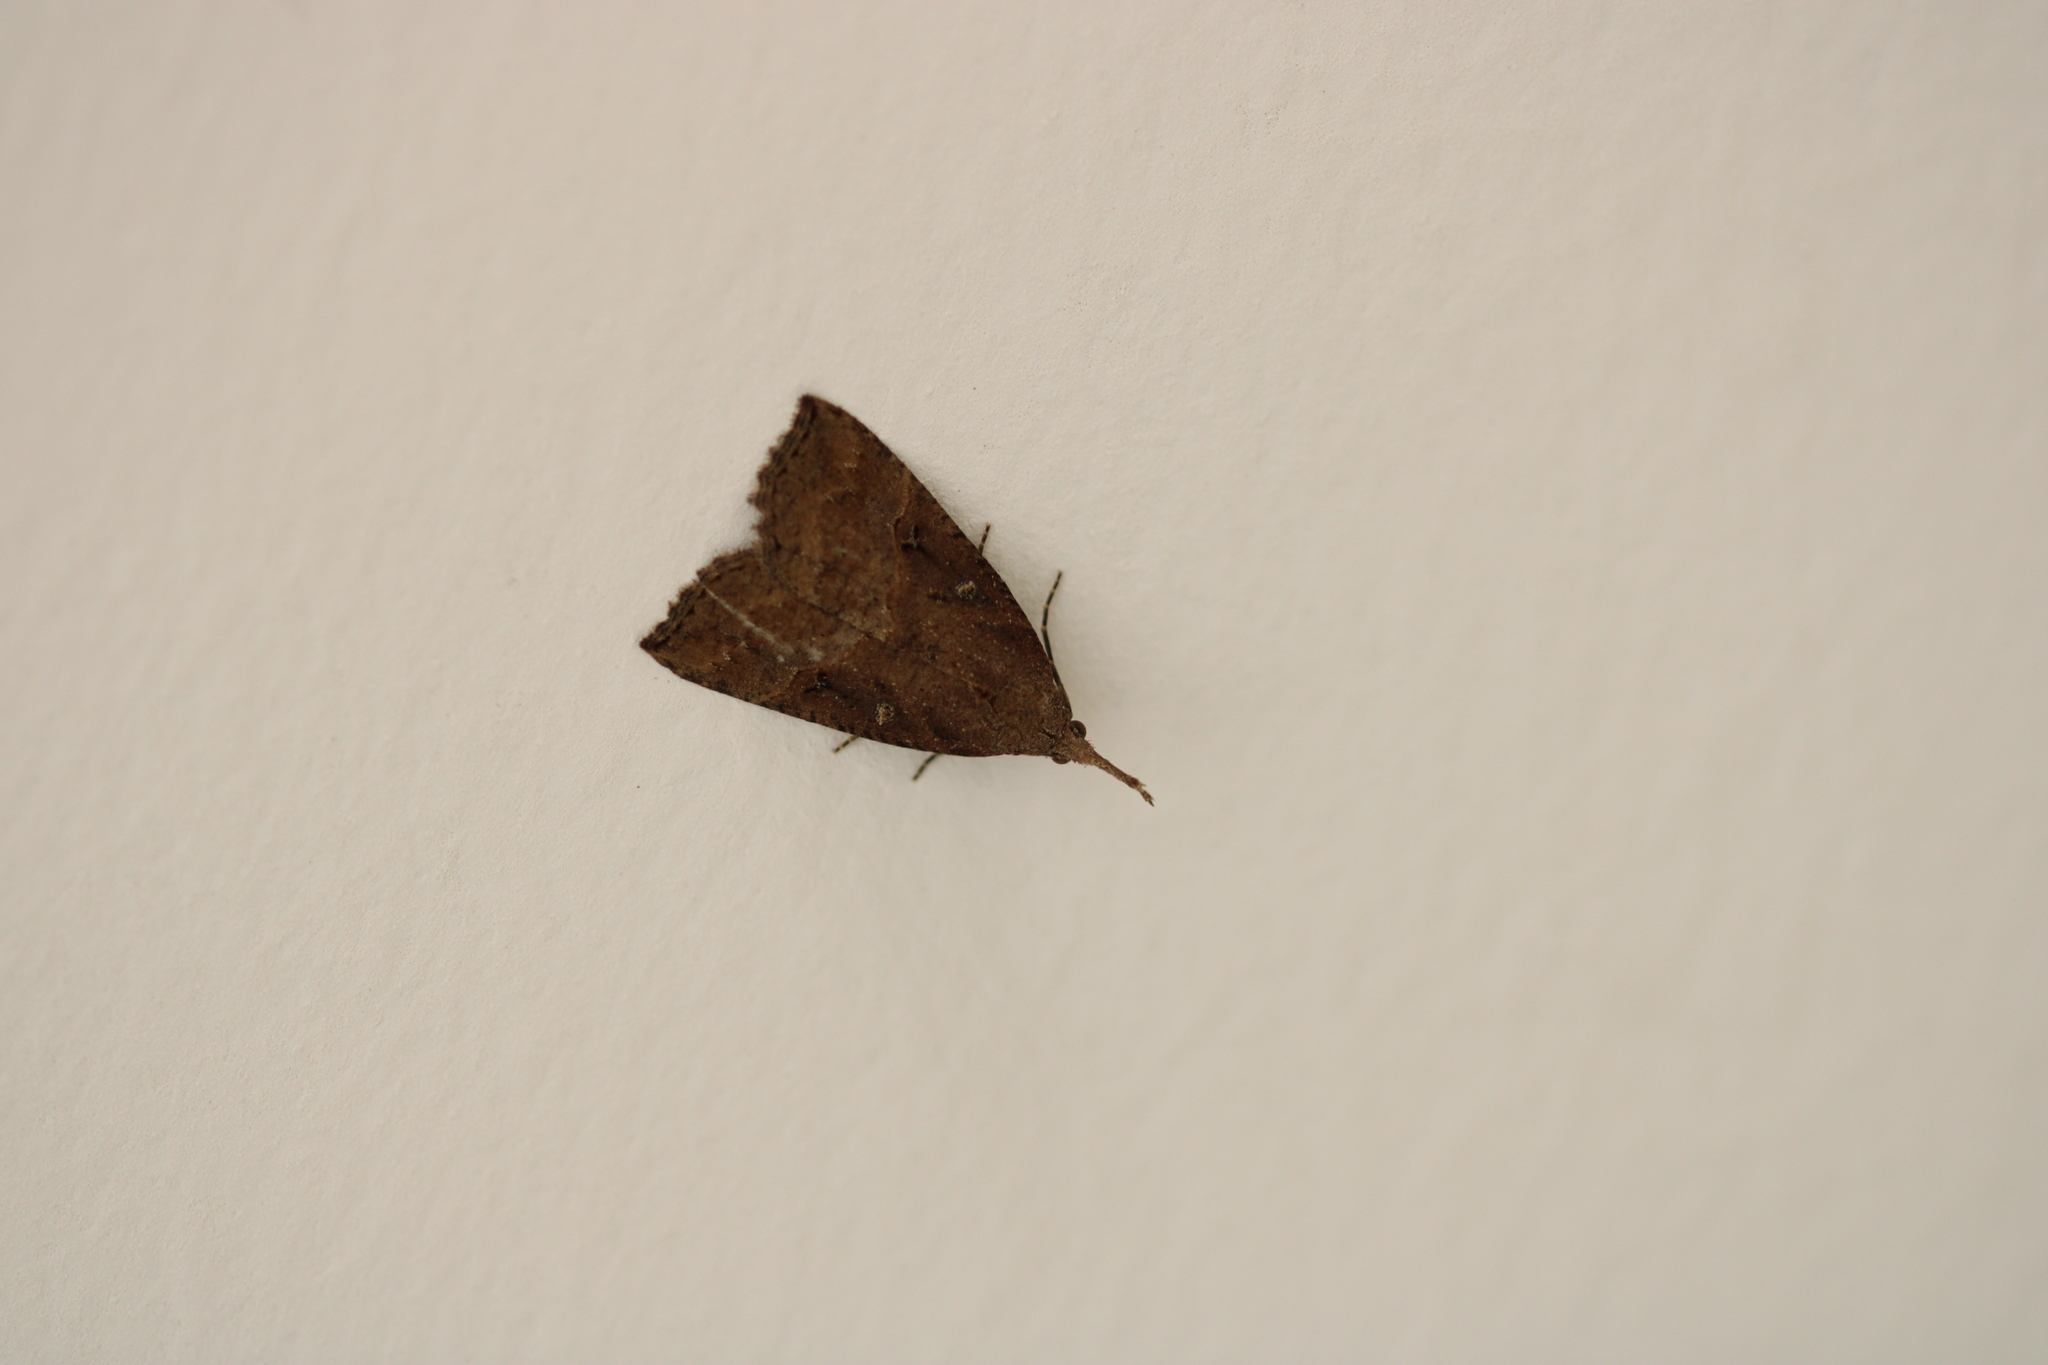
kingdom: Animalia
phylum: Arthropoda
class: Insecta
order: Lepidoptera
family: Erebidae
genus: Hypena
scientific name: Hypena rostralis
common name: Buttoned snout
